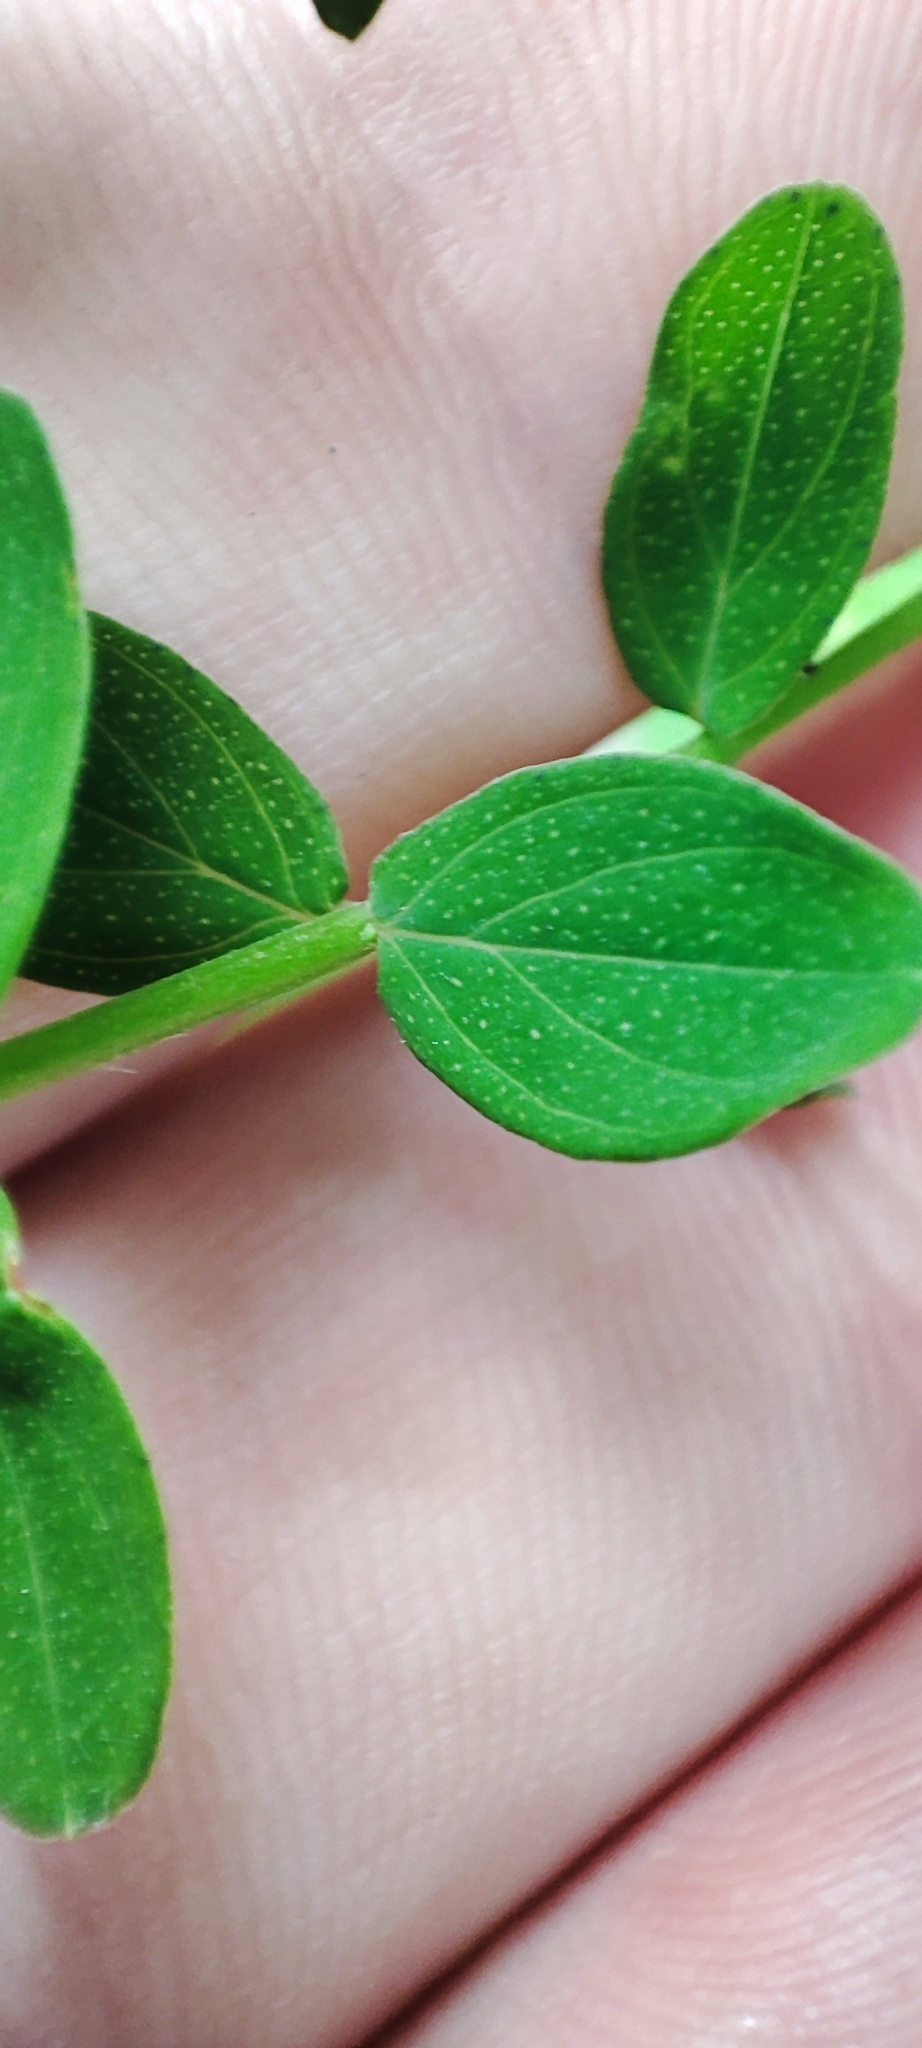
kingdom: Plantae
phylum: Tracheophyta
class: Magnoliopsida
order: Malpighiales
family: Hypericaceae
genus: Hypericum
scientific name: Hypericum perforatum
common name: Common st. johnswort
